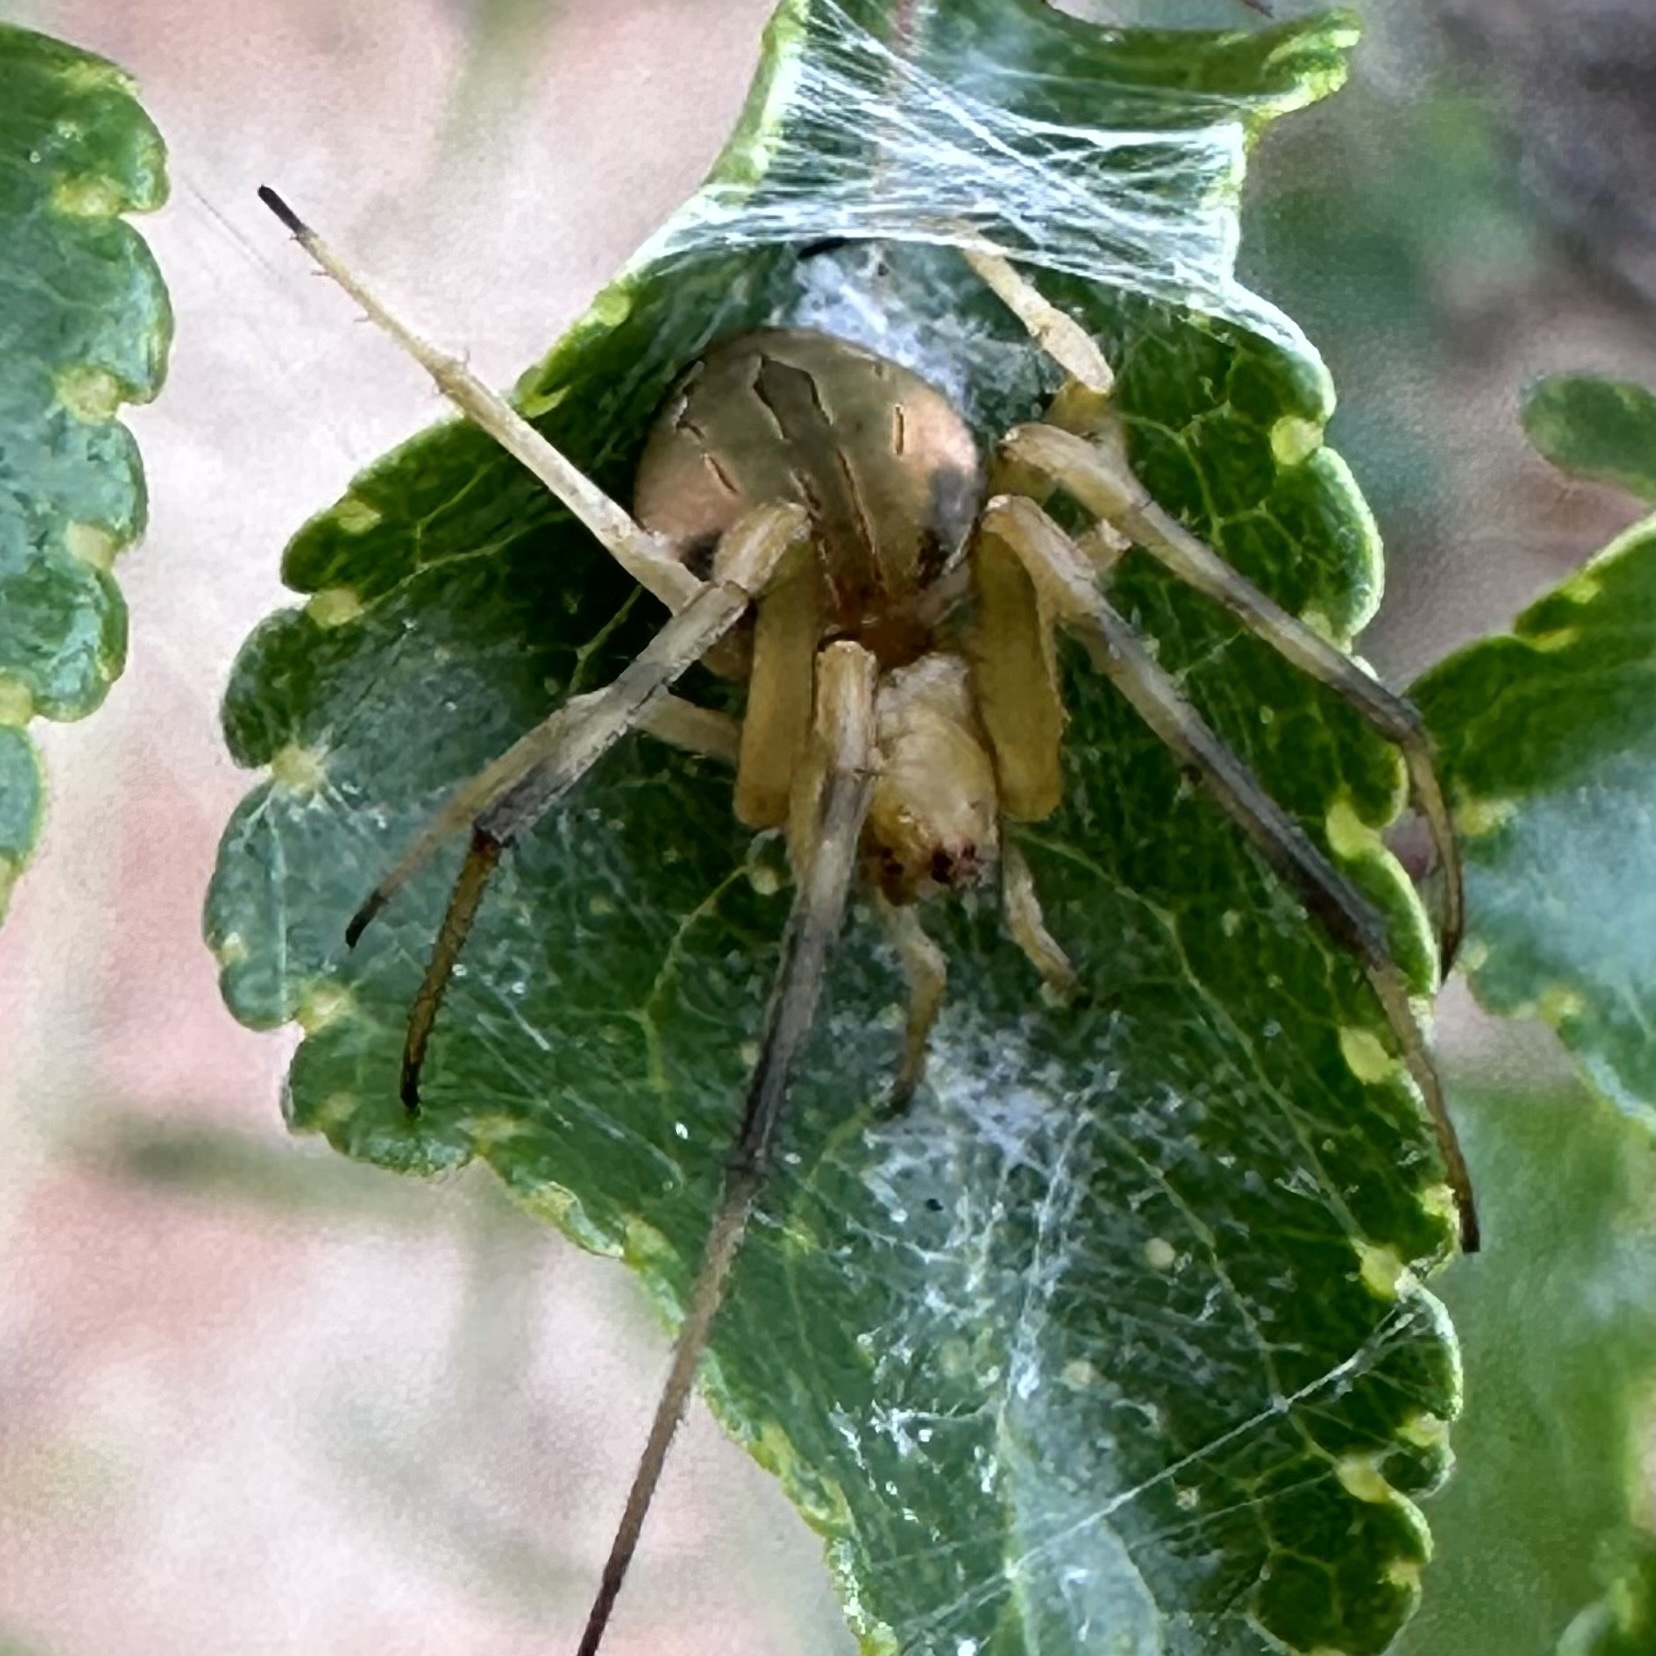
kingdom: Animalia
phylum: Arthropoda
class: Arachnida
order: Araneae
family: Araneidae
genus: Acacesia
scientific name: Acacesia hamata
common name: Orb weavers
